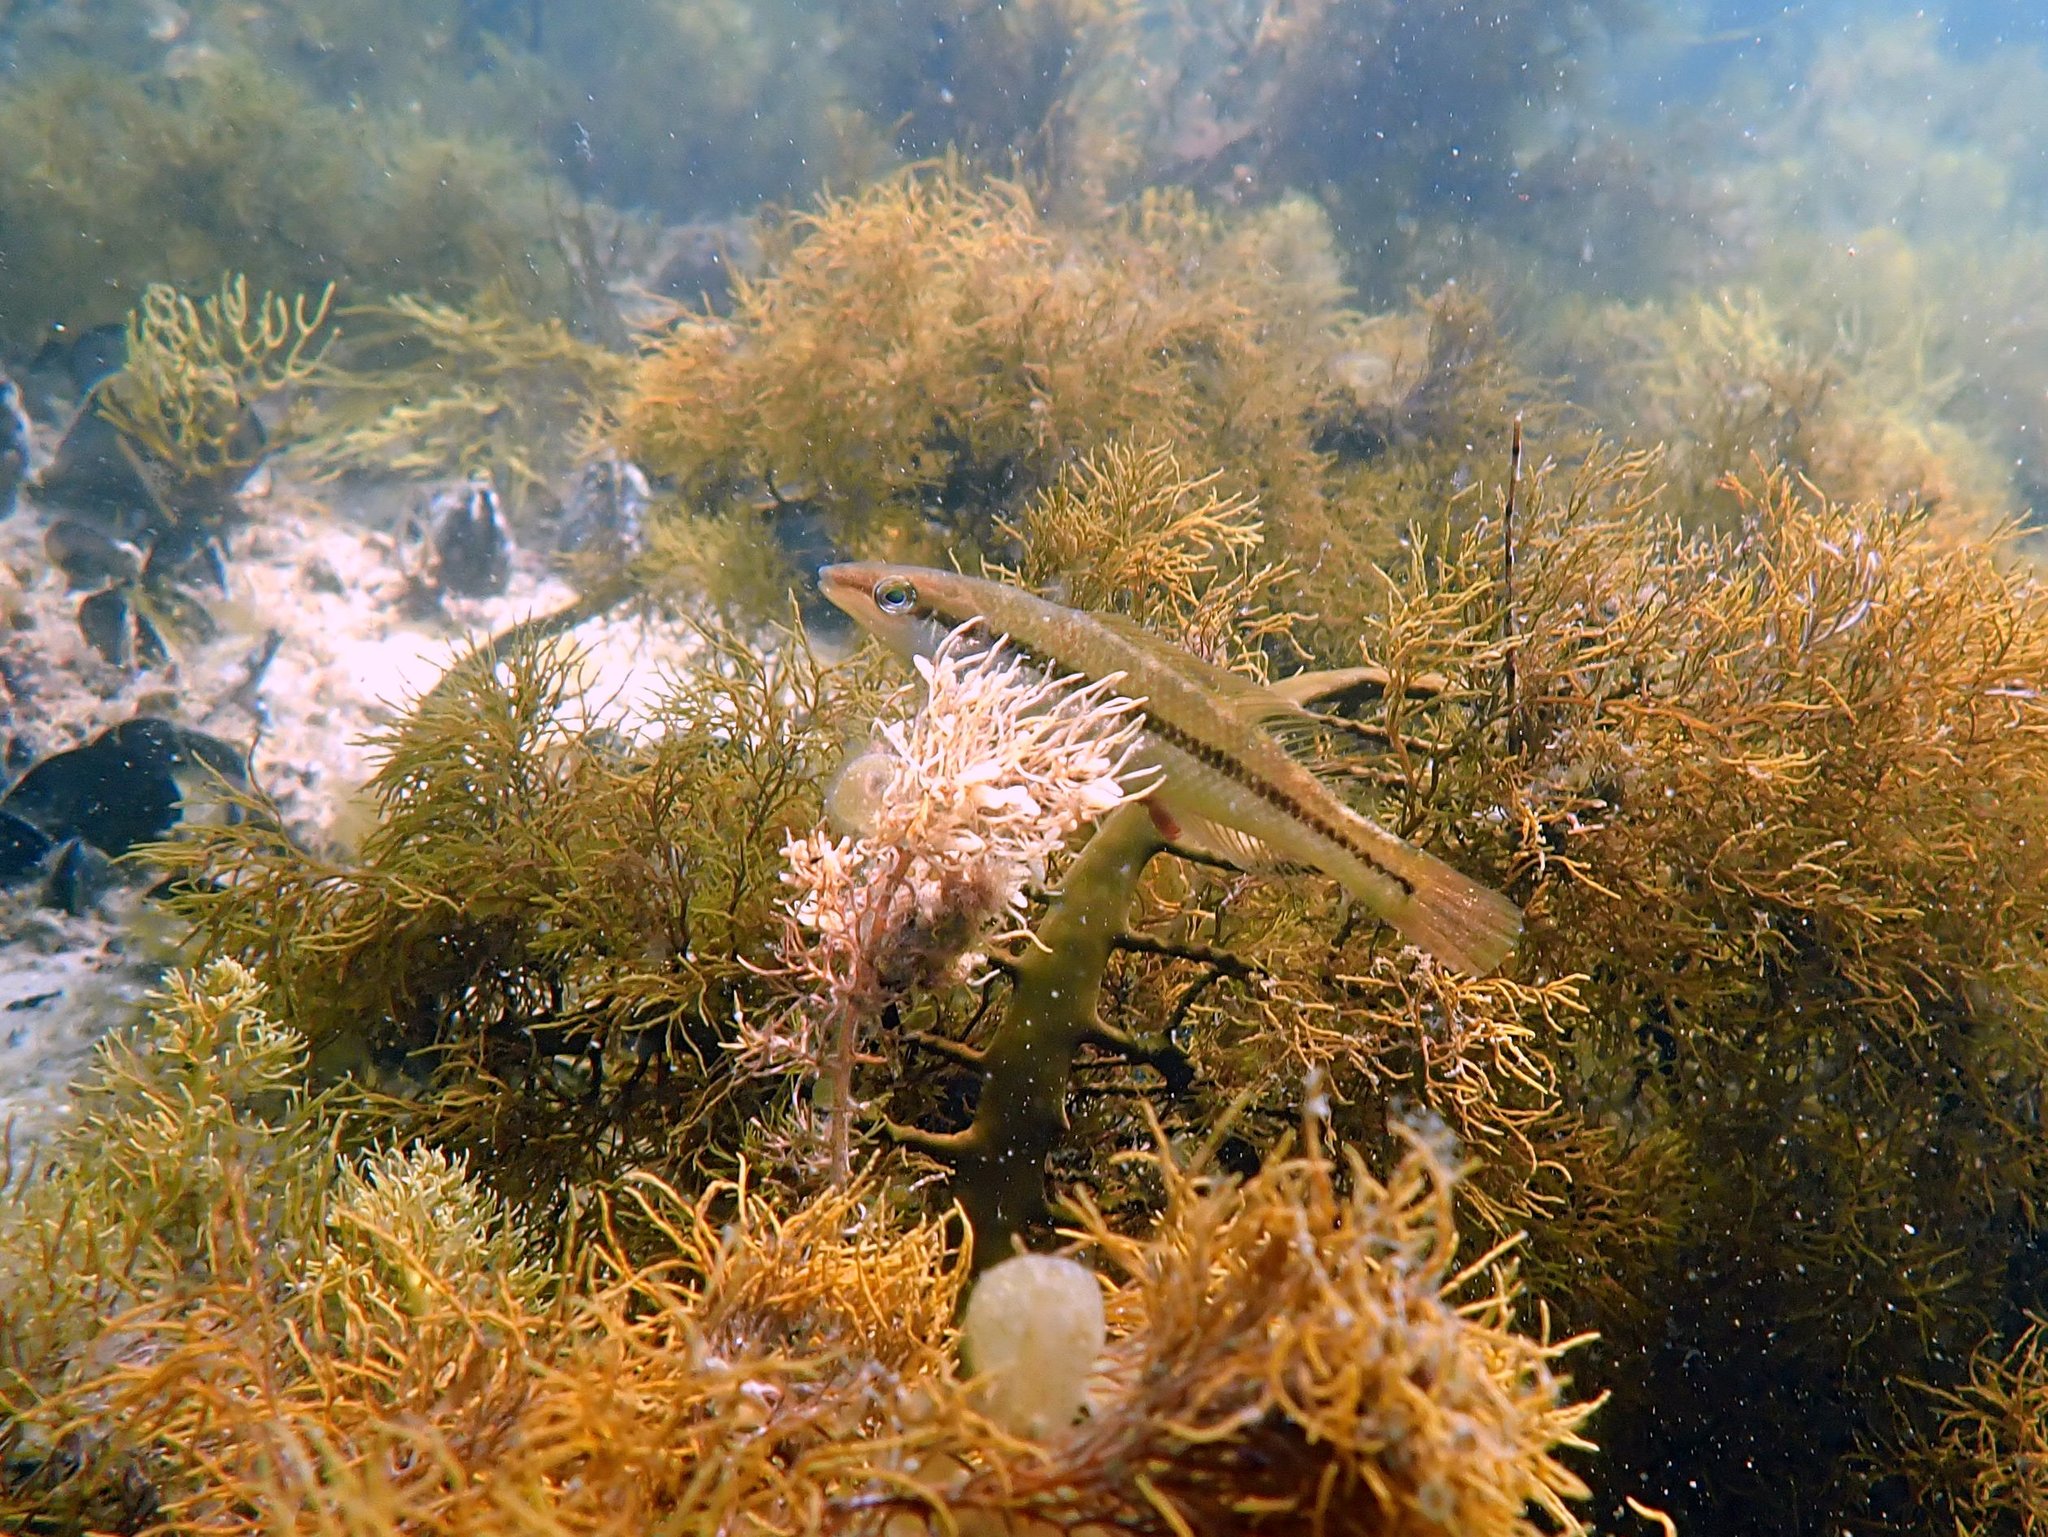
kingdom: Animalia
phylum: Chordata
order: Perciformes
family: Odacidae
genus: Neoodax
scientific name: Neoodax balteatus
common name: Ground mullet
